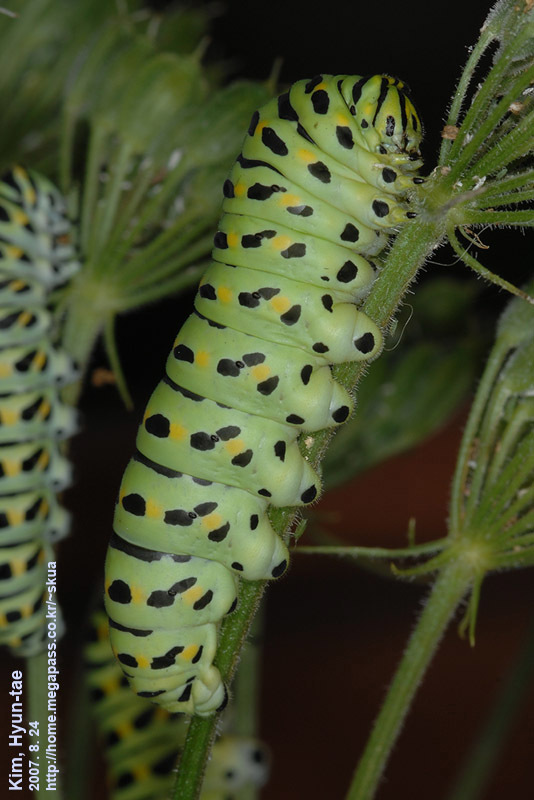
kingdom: Animalia
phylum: Arthropoda
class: Insecta
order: Lepidoptera
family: Papilionidae
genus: Papilio
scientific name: Papilio machaon
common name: Swallowtail
